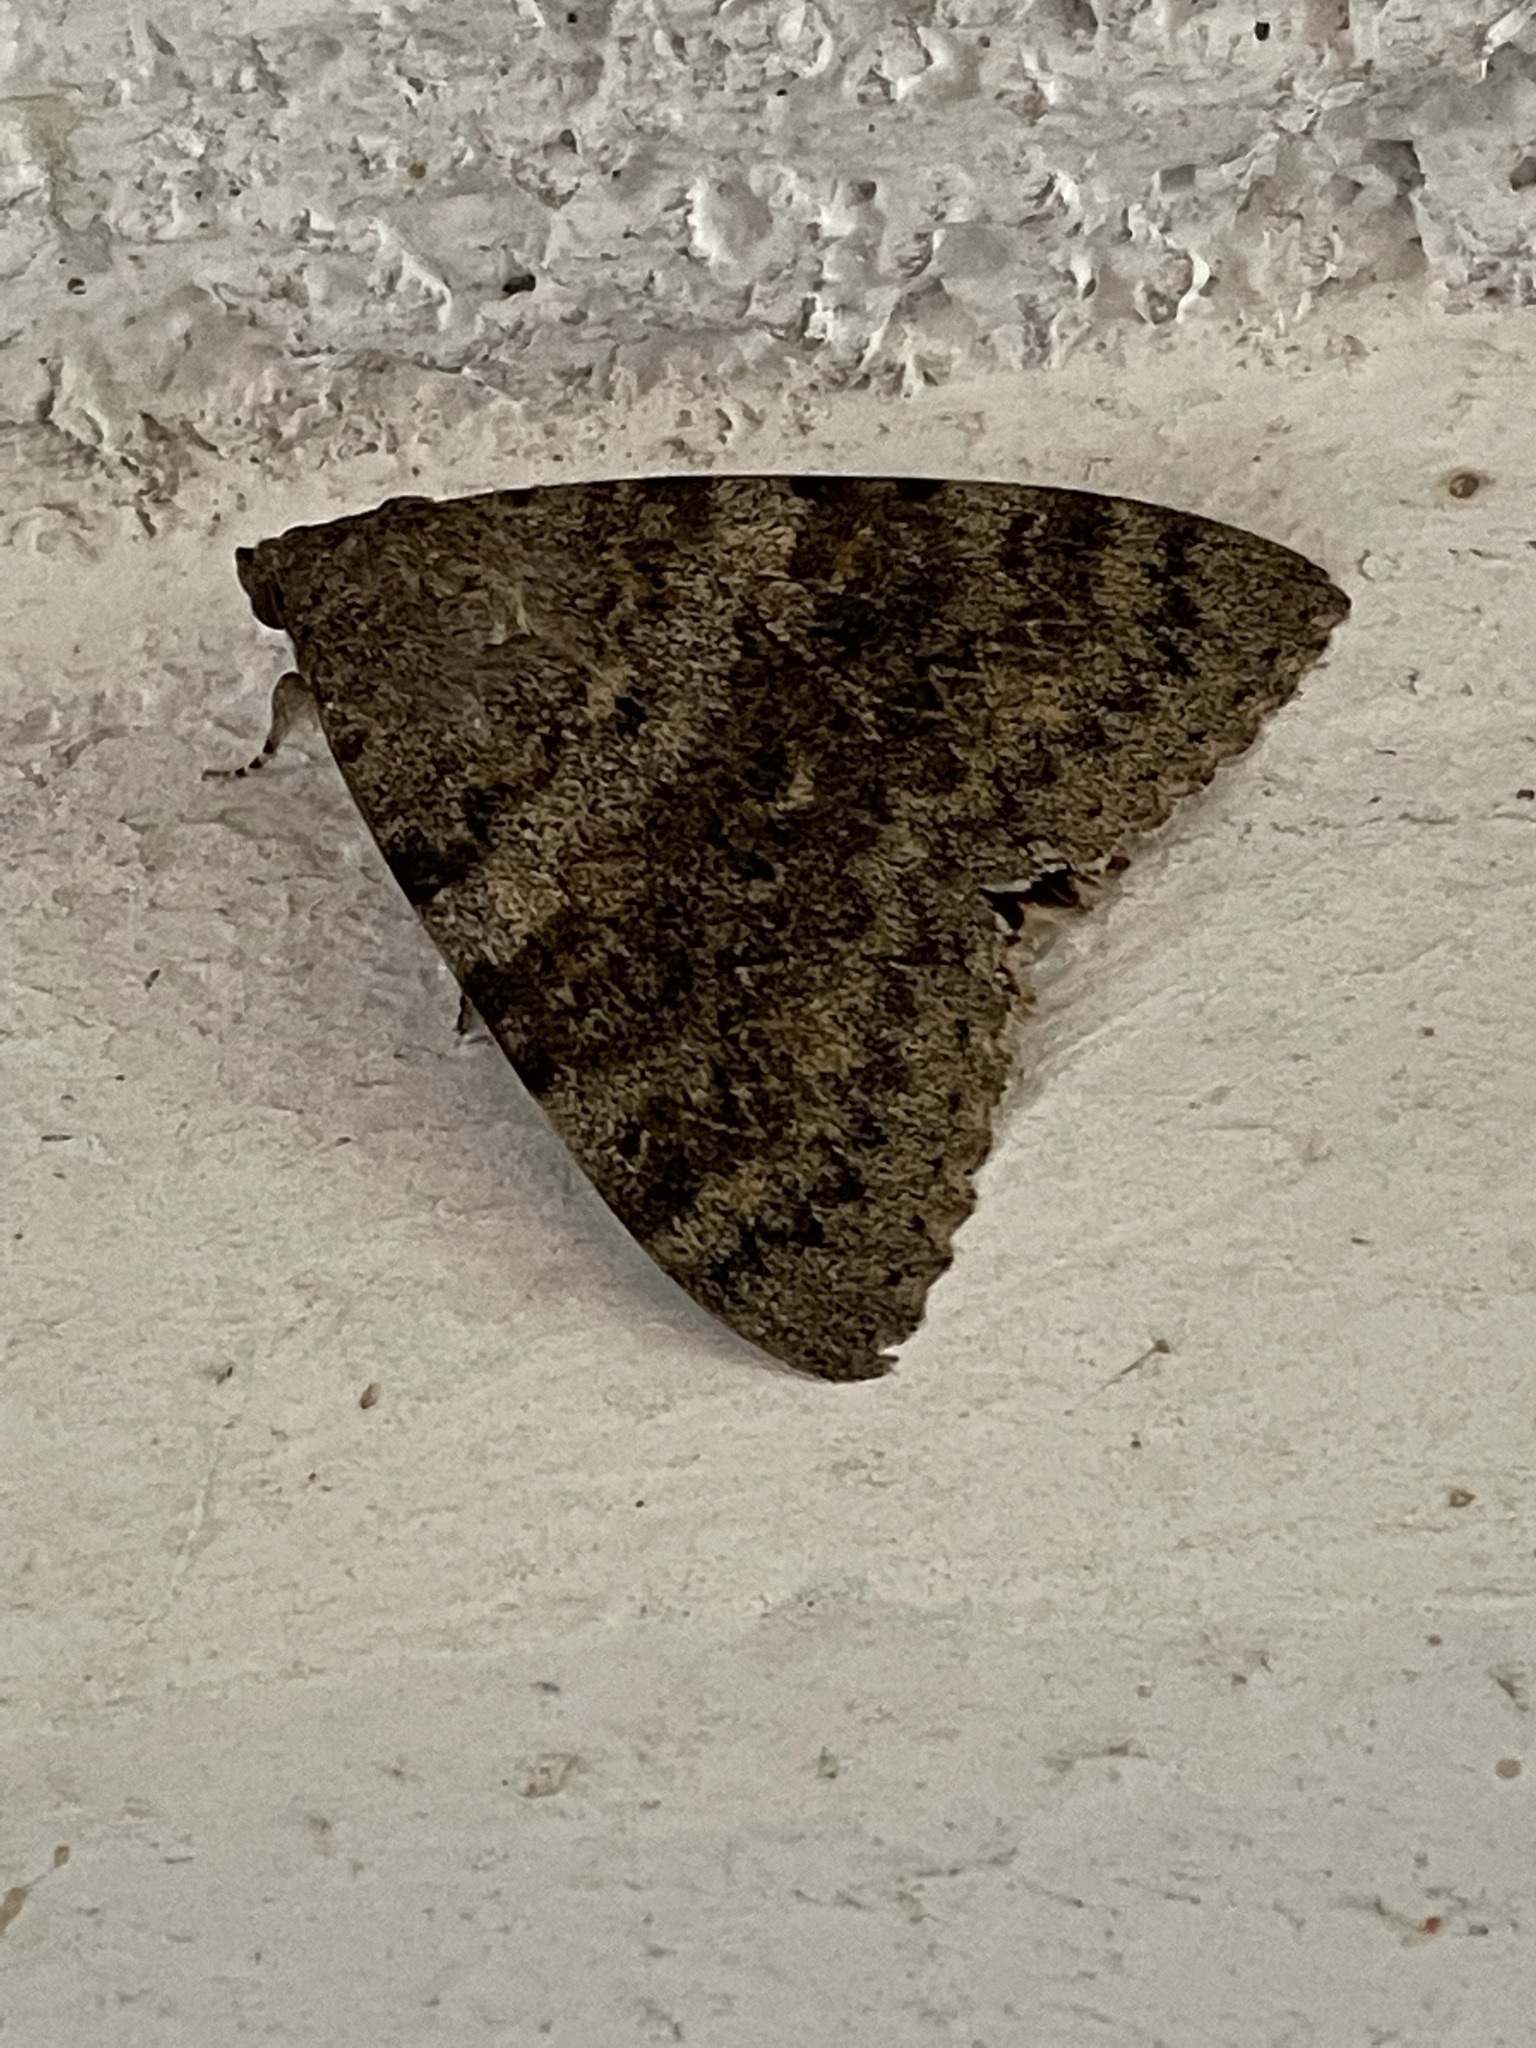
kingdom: Animalia
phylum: Arthropoda
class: Insecta
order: Lepidoptera
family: Erebidae
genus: Catocala
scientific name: Catocala elocata
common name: French red underwing
